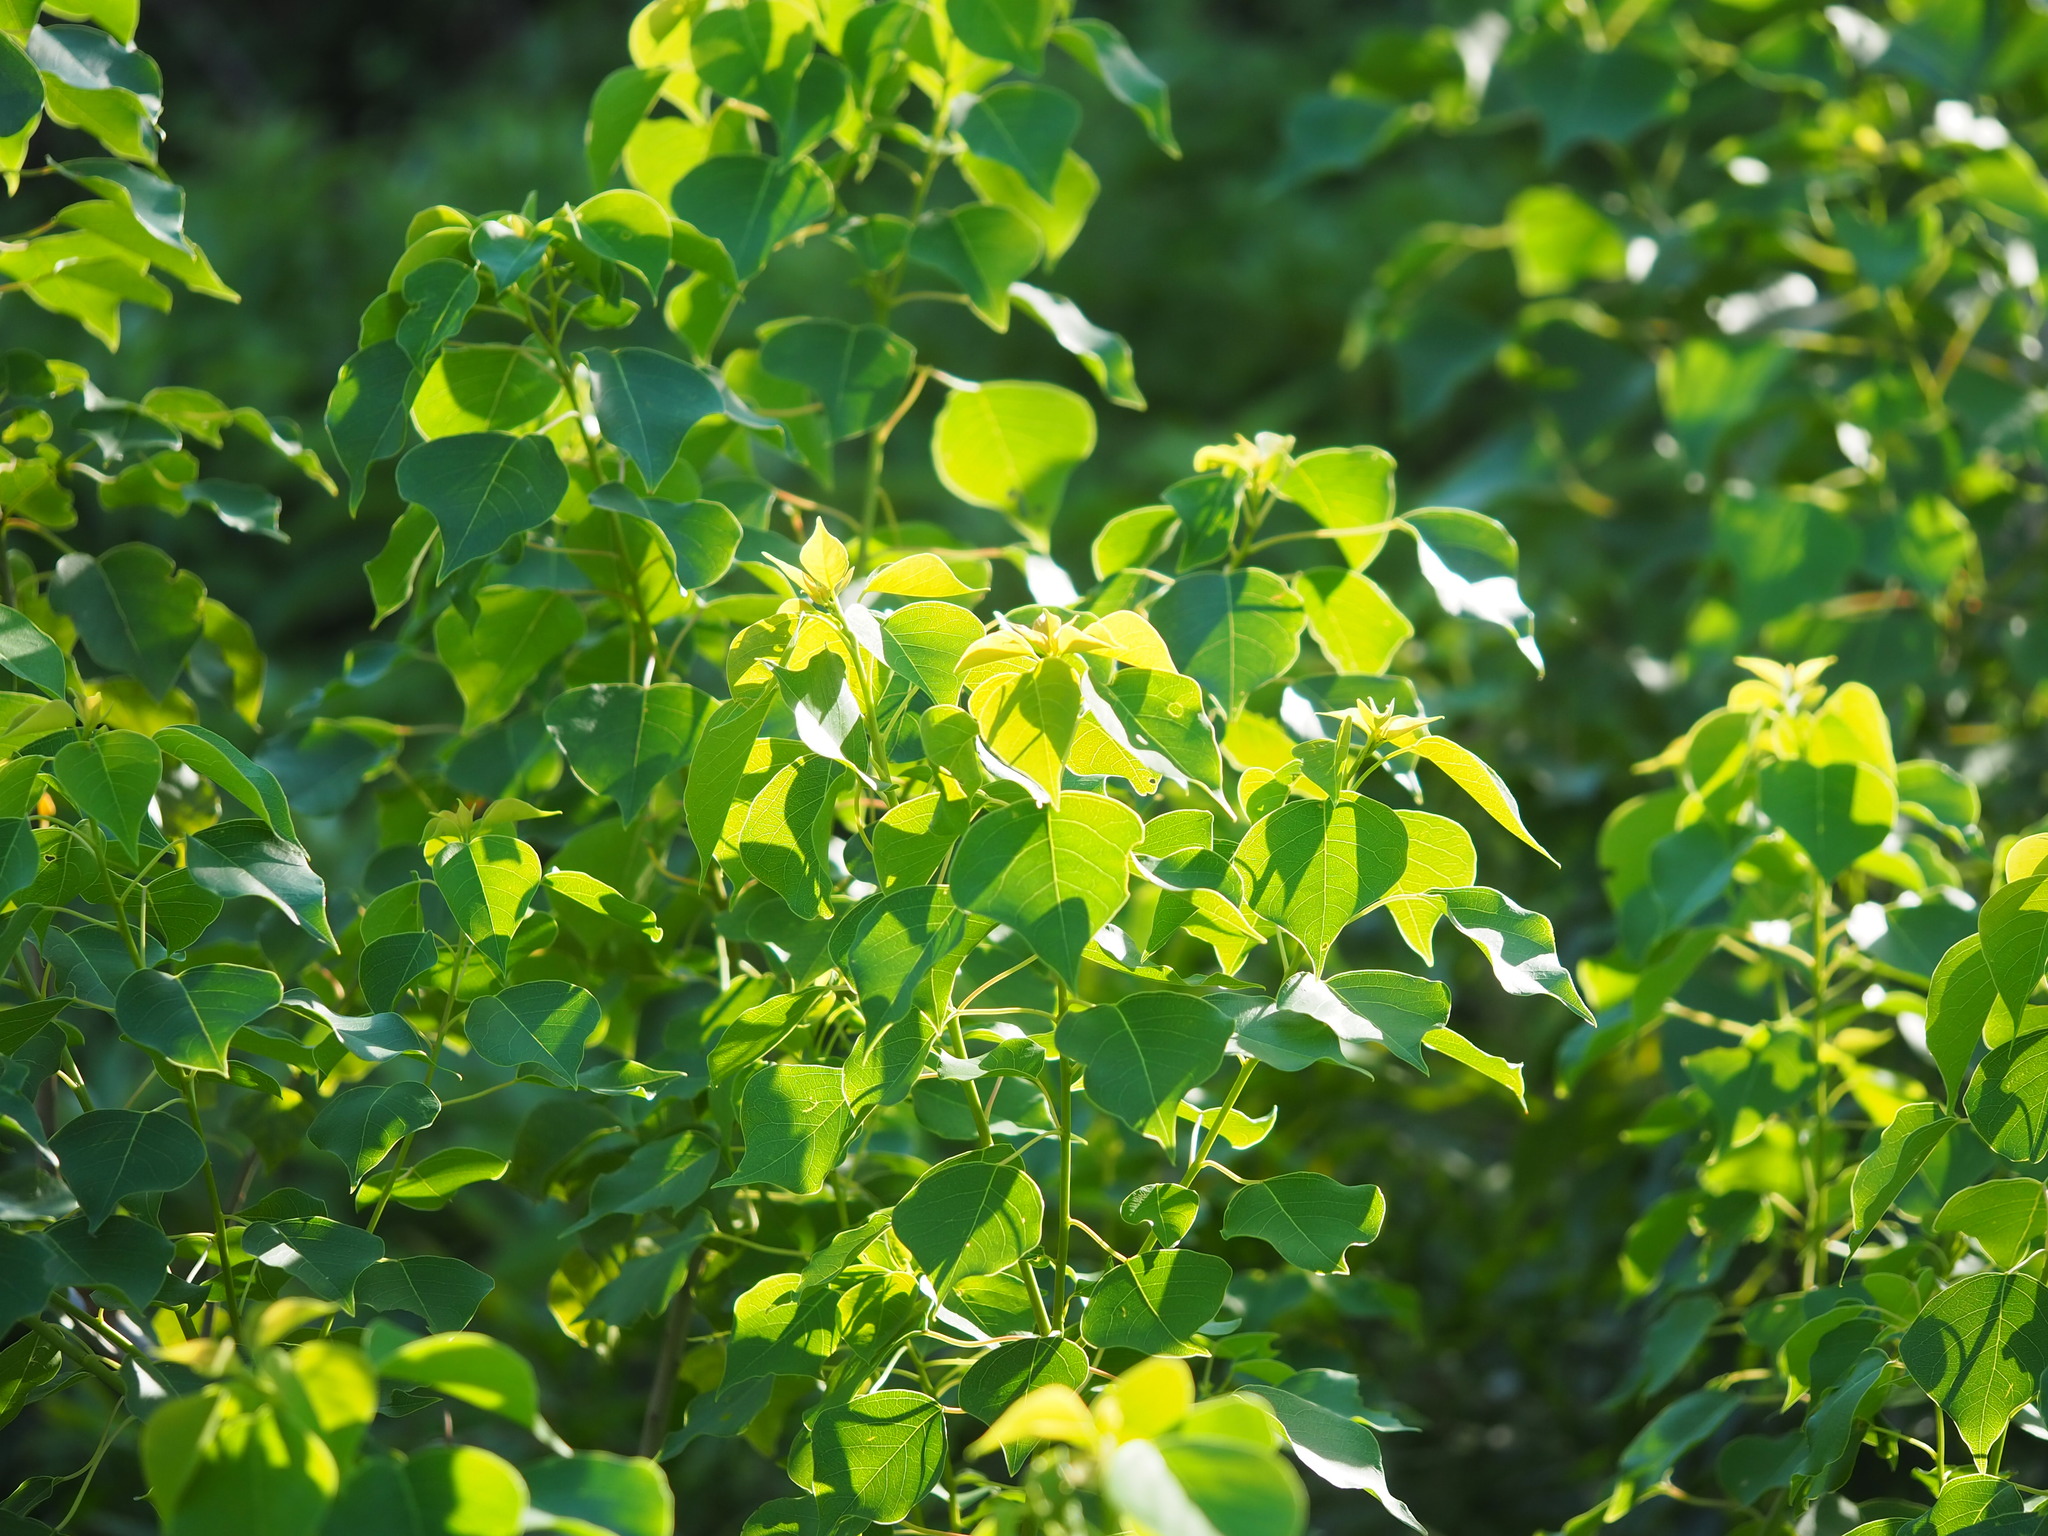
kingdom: Plantae
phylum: Tracheophyta
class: Magnoliopsida
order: Malpighiales
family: Euphorbiaceae
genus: Triadica
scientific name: Triadica sebifera
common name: Chinese tallow
